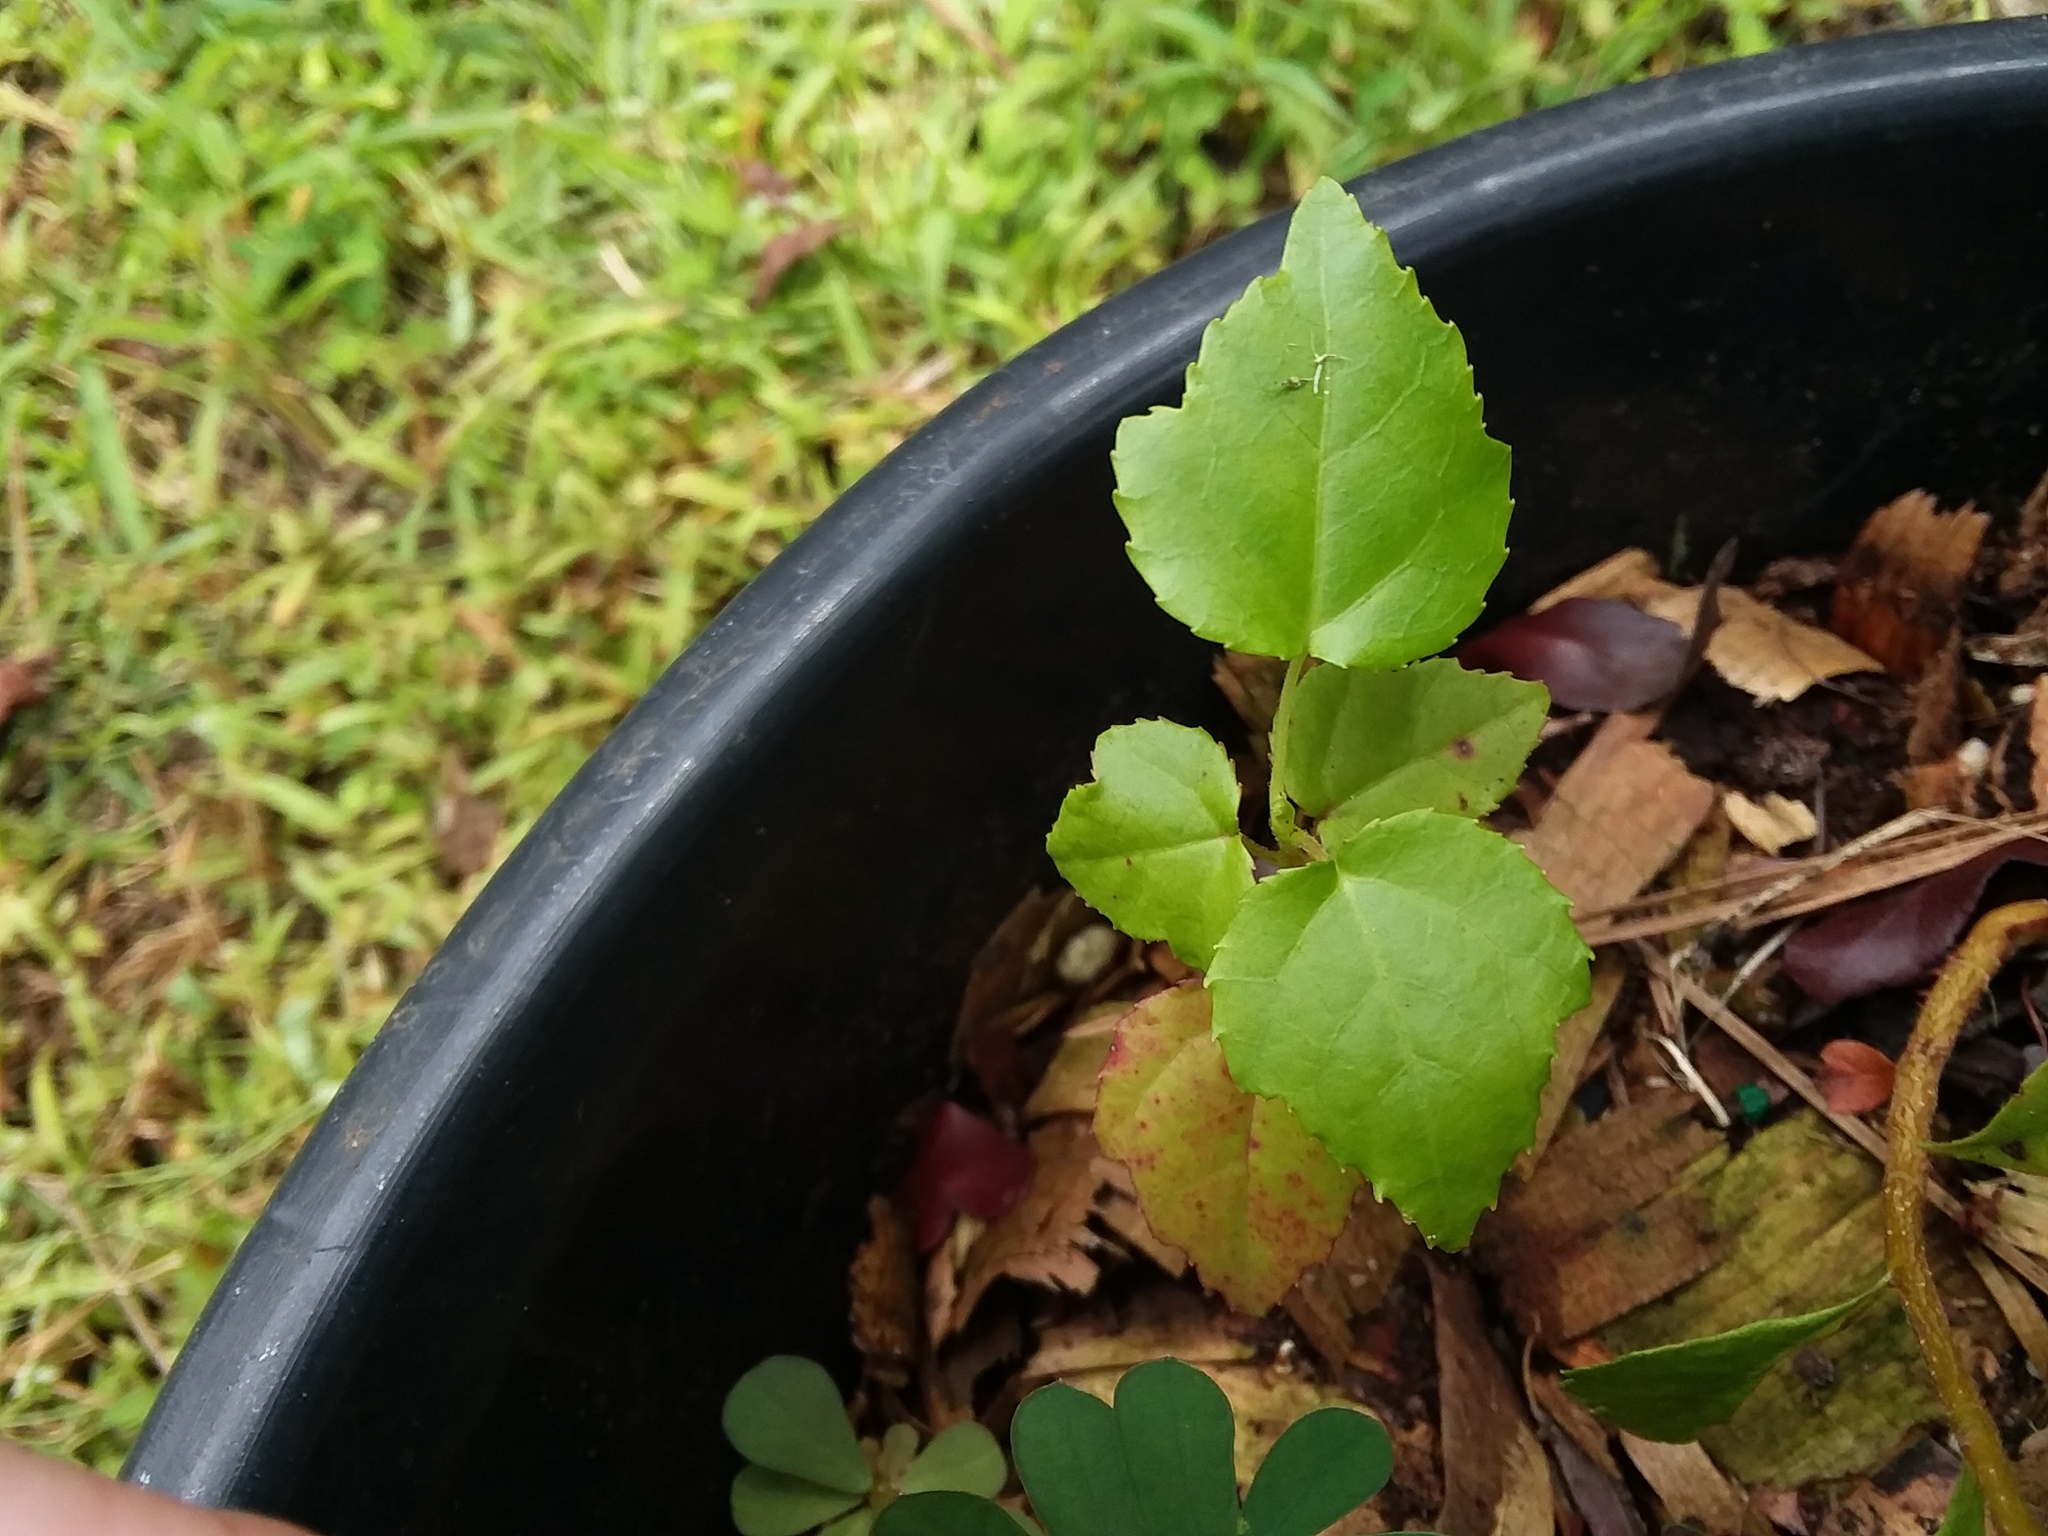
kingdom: Plantae
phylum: Tracheophyta
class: Magnoliopsida
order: Saxifragales
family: Altingiaceae
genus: Liquidambar
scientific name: Liquidambar styraciflua
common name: Sweet gum
